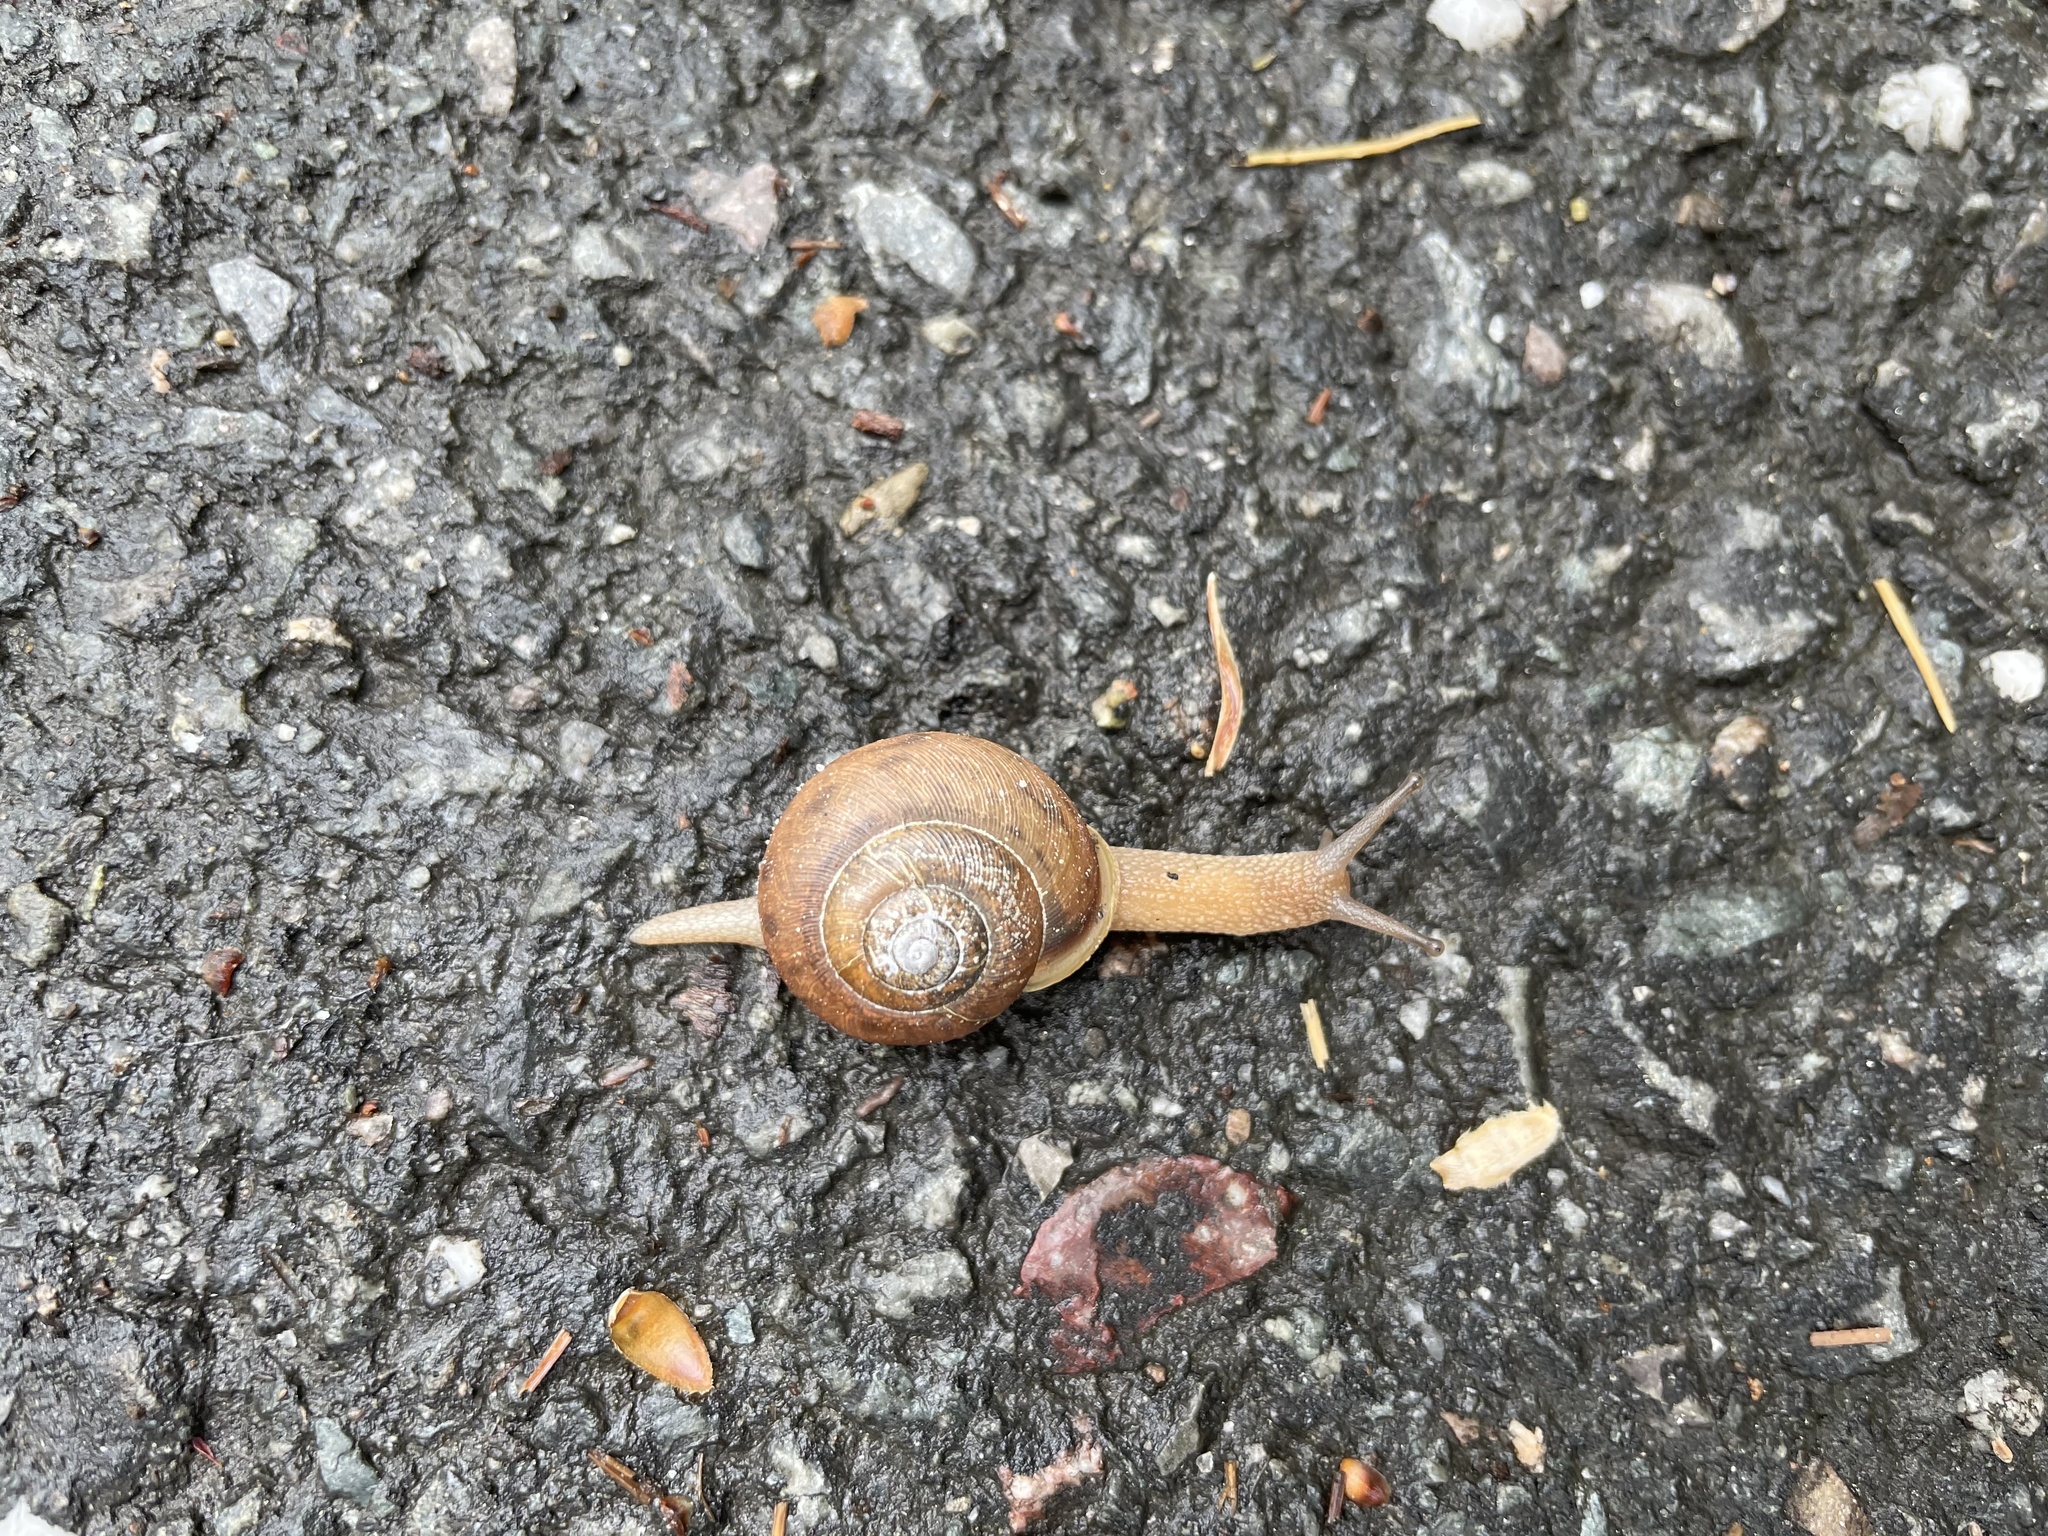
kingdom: Animalia
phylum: Mollusca
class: Gastropoda
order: Stylommatophora
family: Polygyridae
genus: Neohelix
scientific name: Neohelix albolabris
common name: Eastern whitelip
